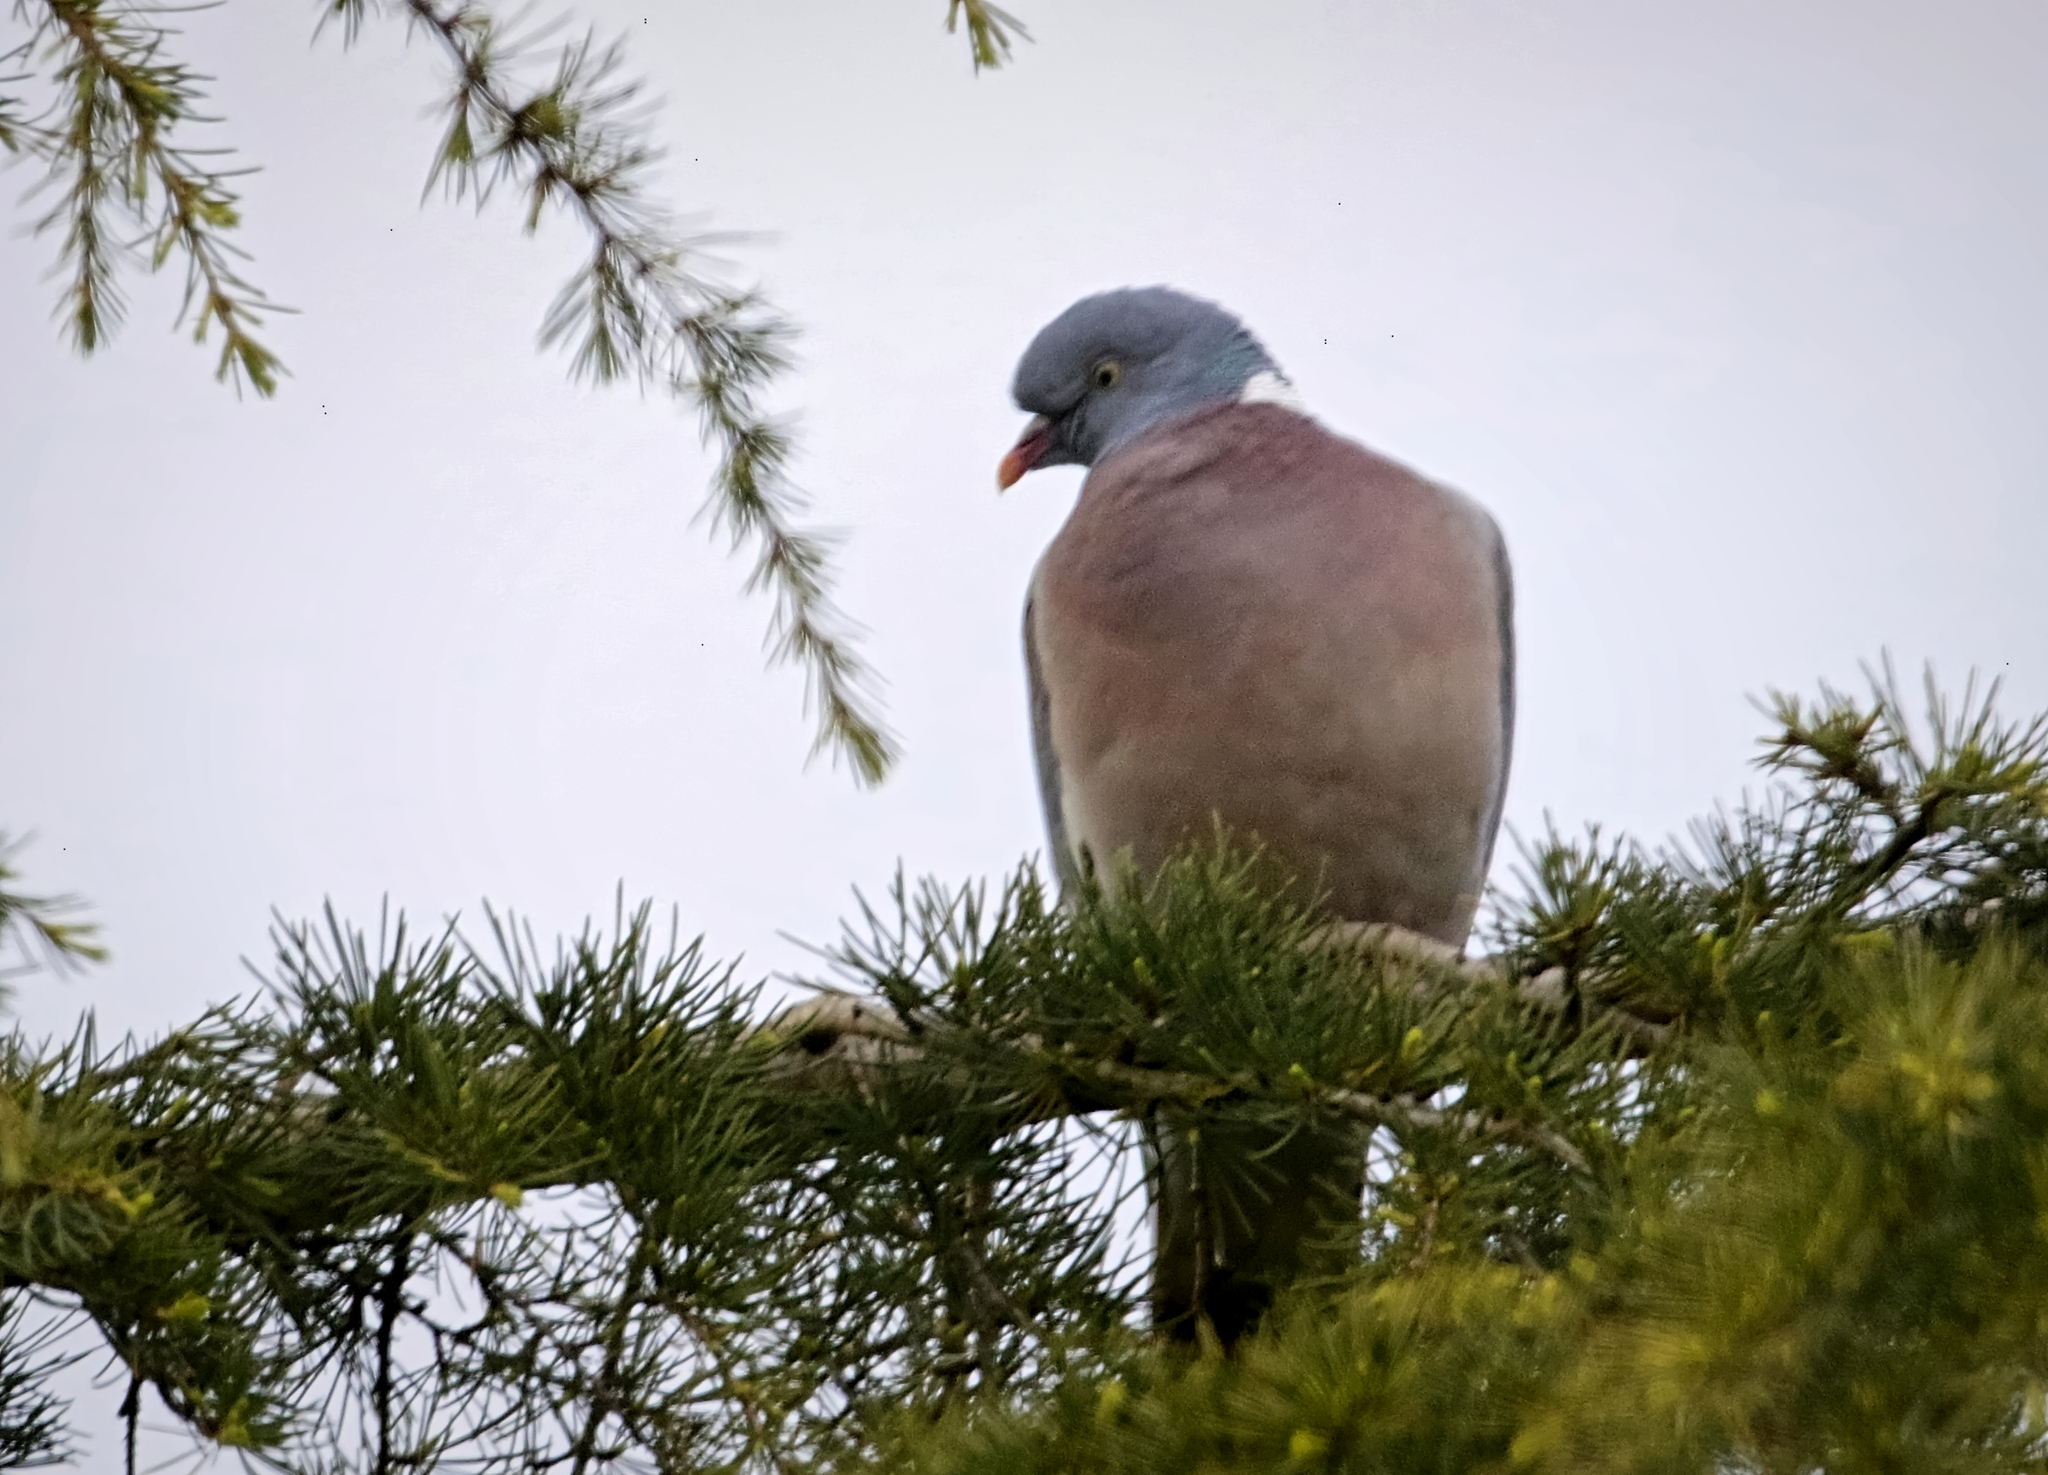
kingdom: Animalia
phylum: Chordata
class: Aves
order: Columbiformes
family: Columbidae
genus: Columba
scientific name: Columba palumbus
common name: Common wood pigeon
